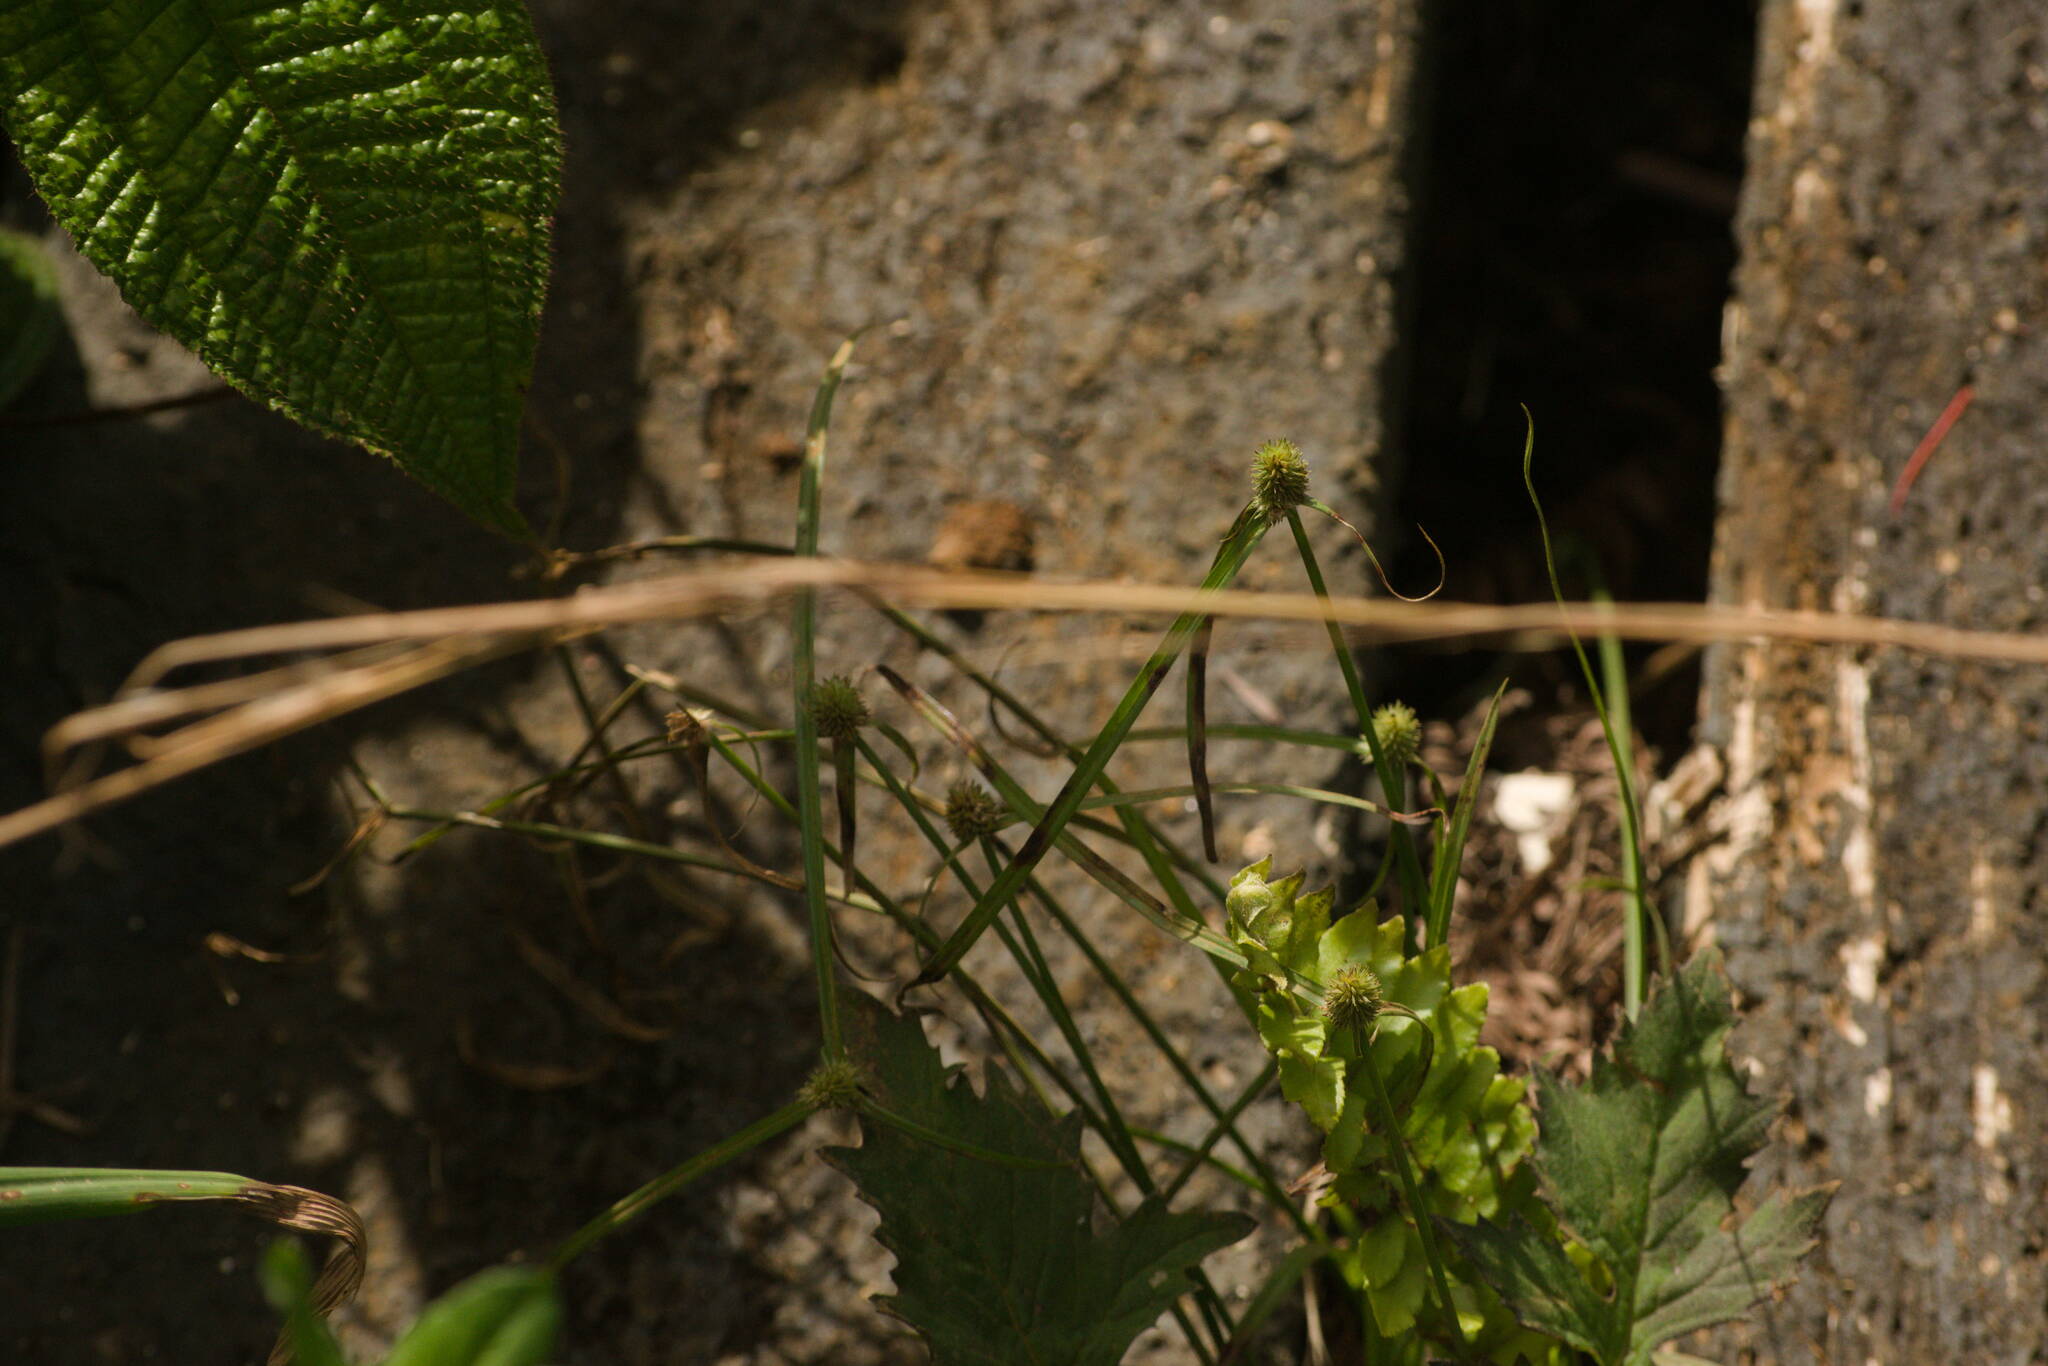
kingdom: Plantae
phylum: Tracheophyta
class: Liliopsida
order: Poales
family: Cyperaceae
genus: Cyperus
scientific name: Cyperus brevifolius
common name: Globe kyllinga
